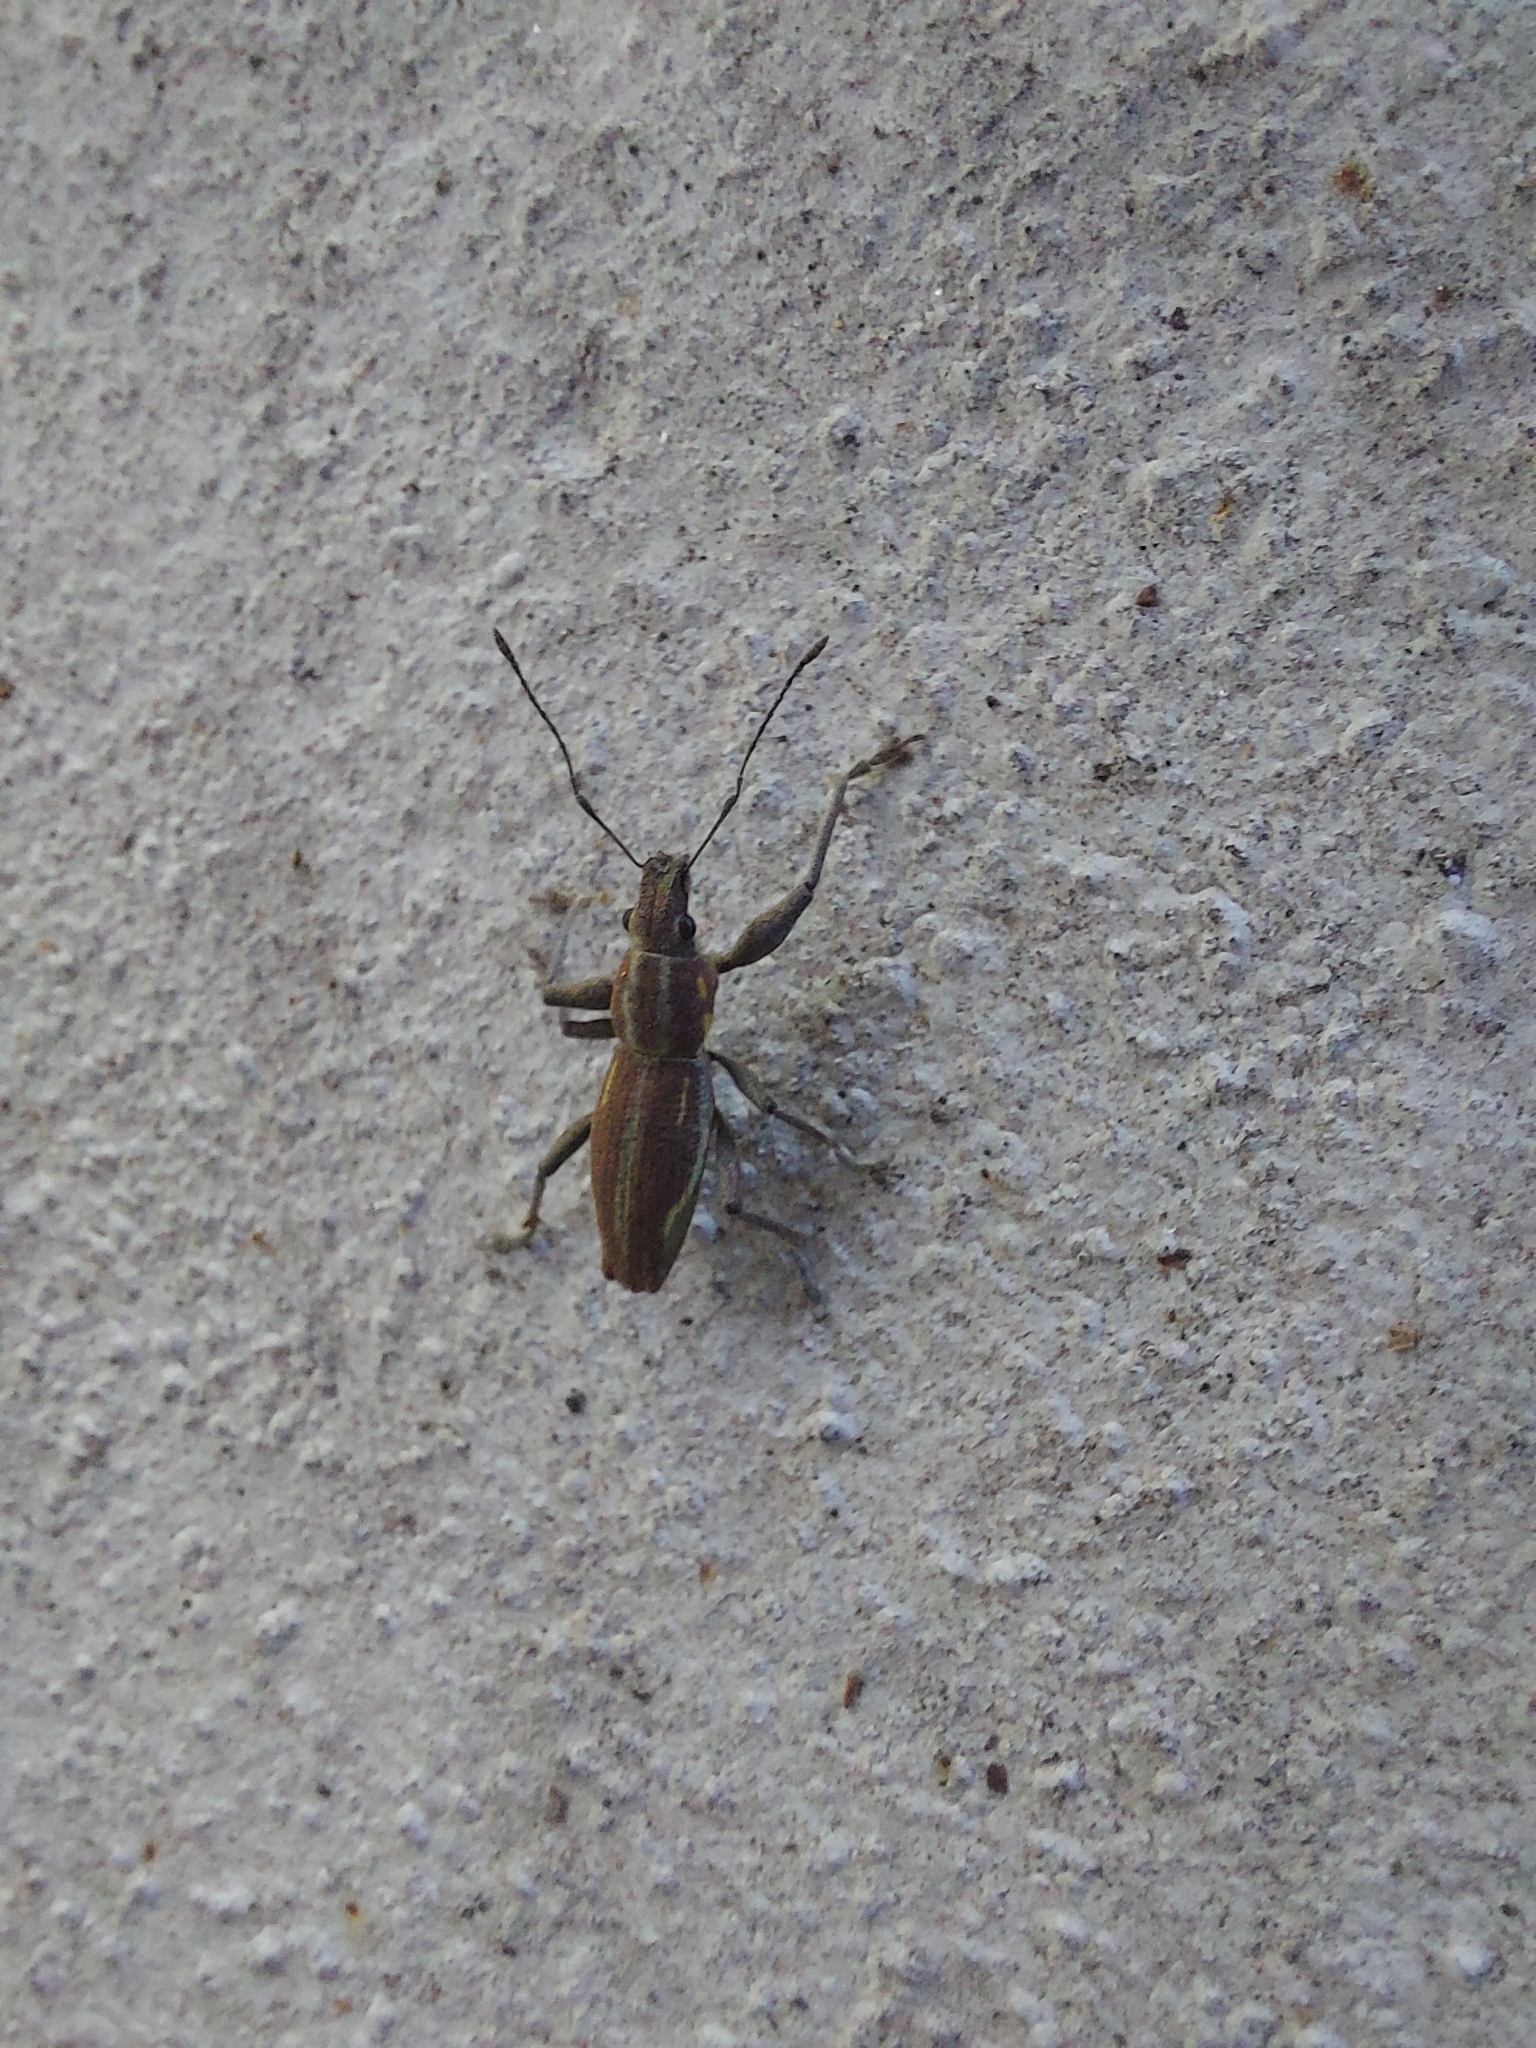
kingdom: Animalia
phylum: Arthropoda
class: Insecta
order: Coleoptera
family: Curculionidae
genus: Naupactus
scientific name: Naupactus xanthographus
